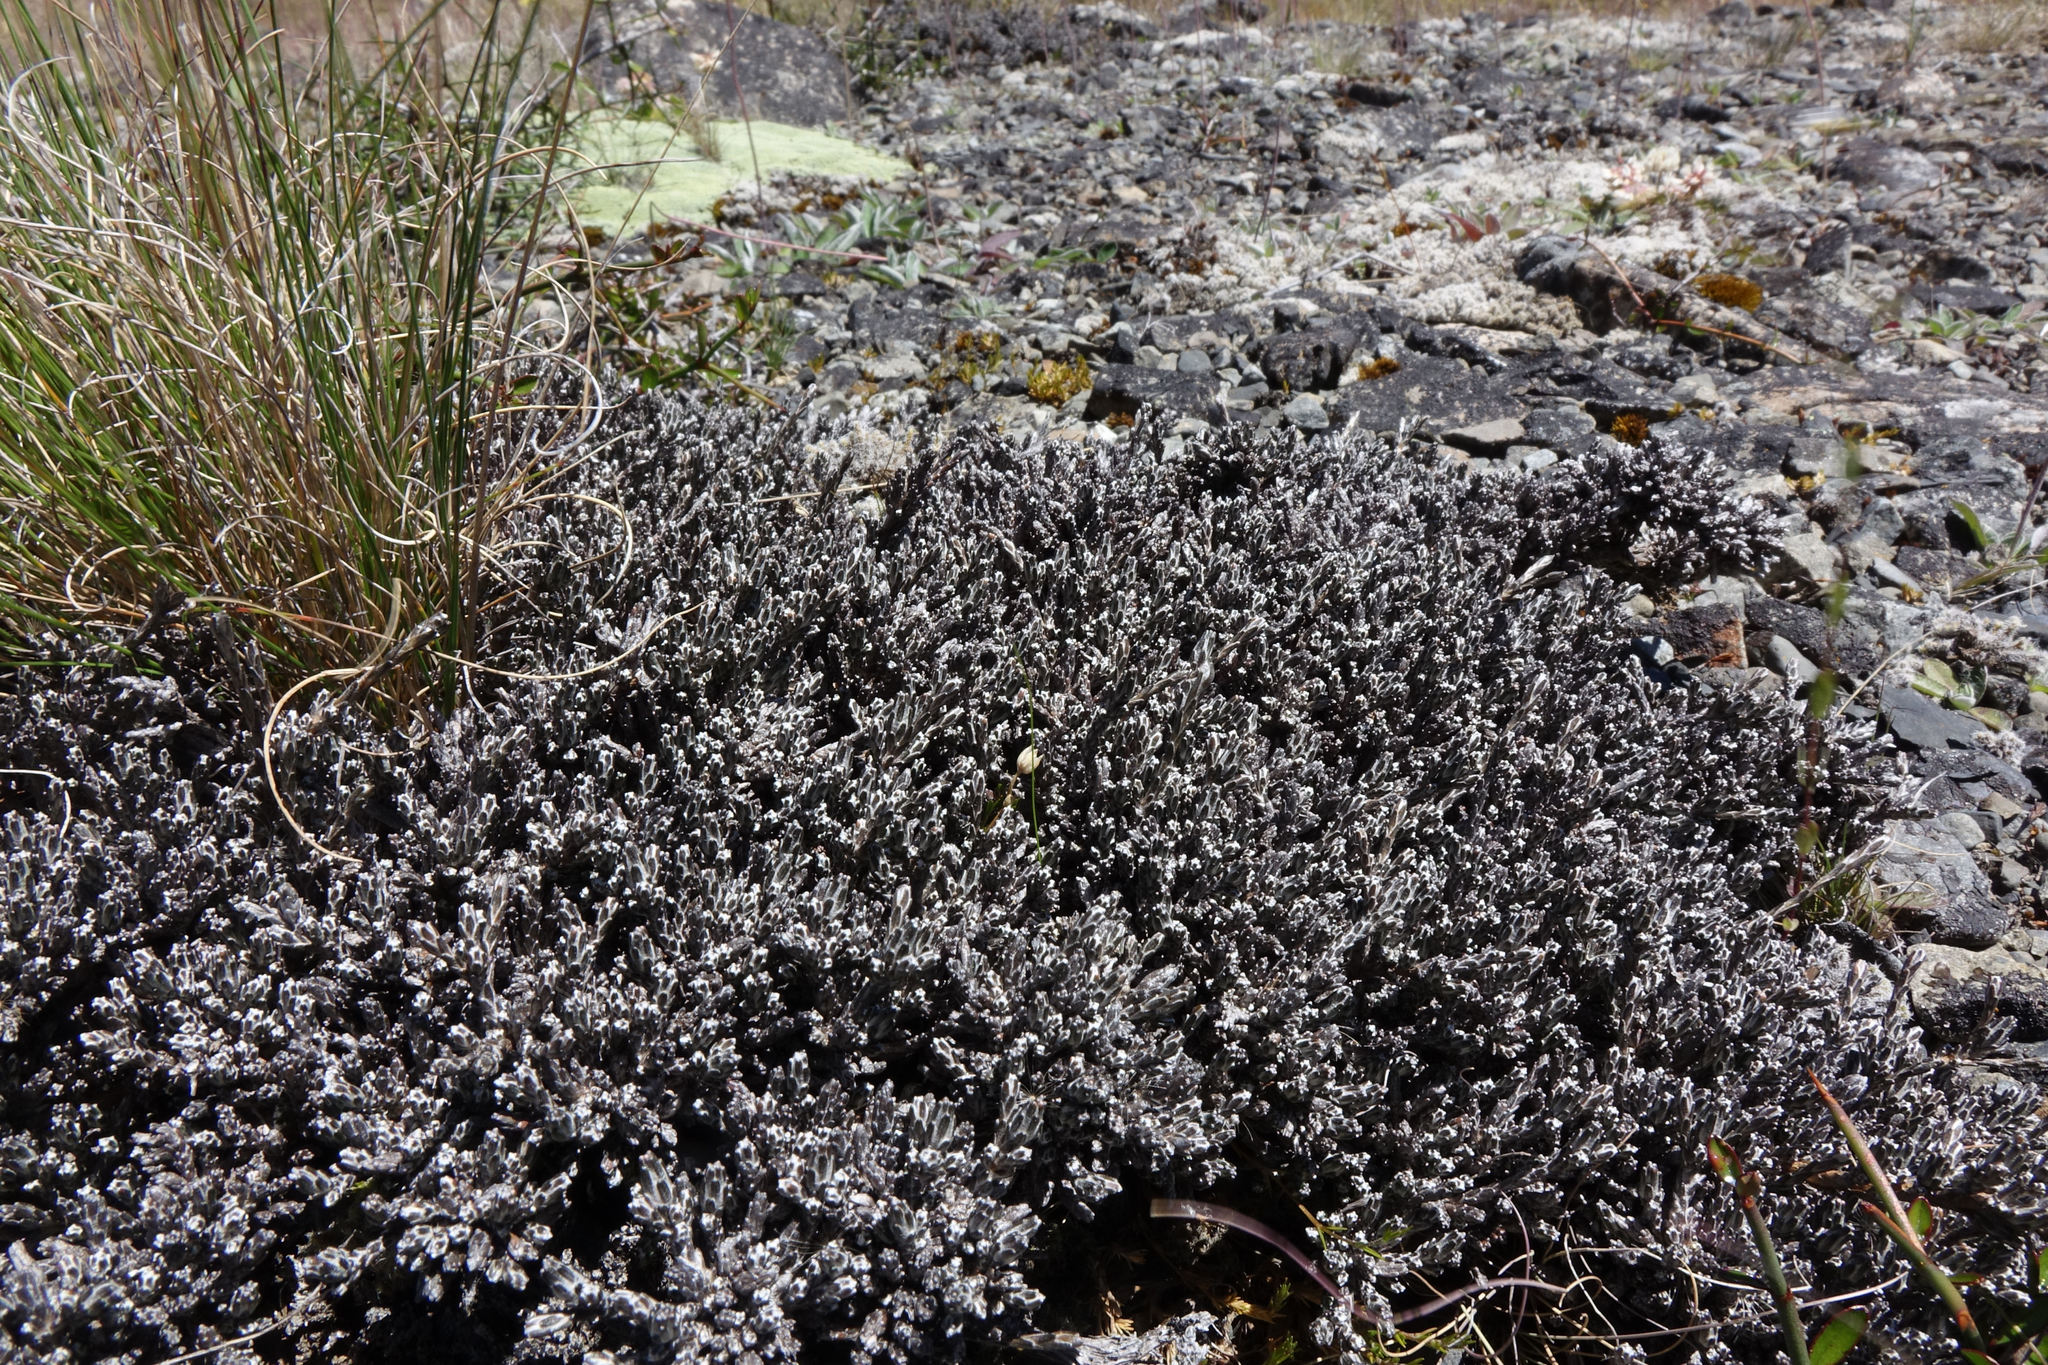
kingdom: Plantae
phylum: Tracheophyta
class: Magnoliopsida
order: Asterales
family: Asteraceae
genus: Ozothamnus
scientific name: Ozothamnus depressus
